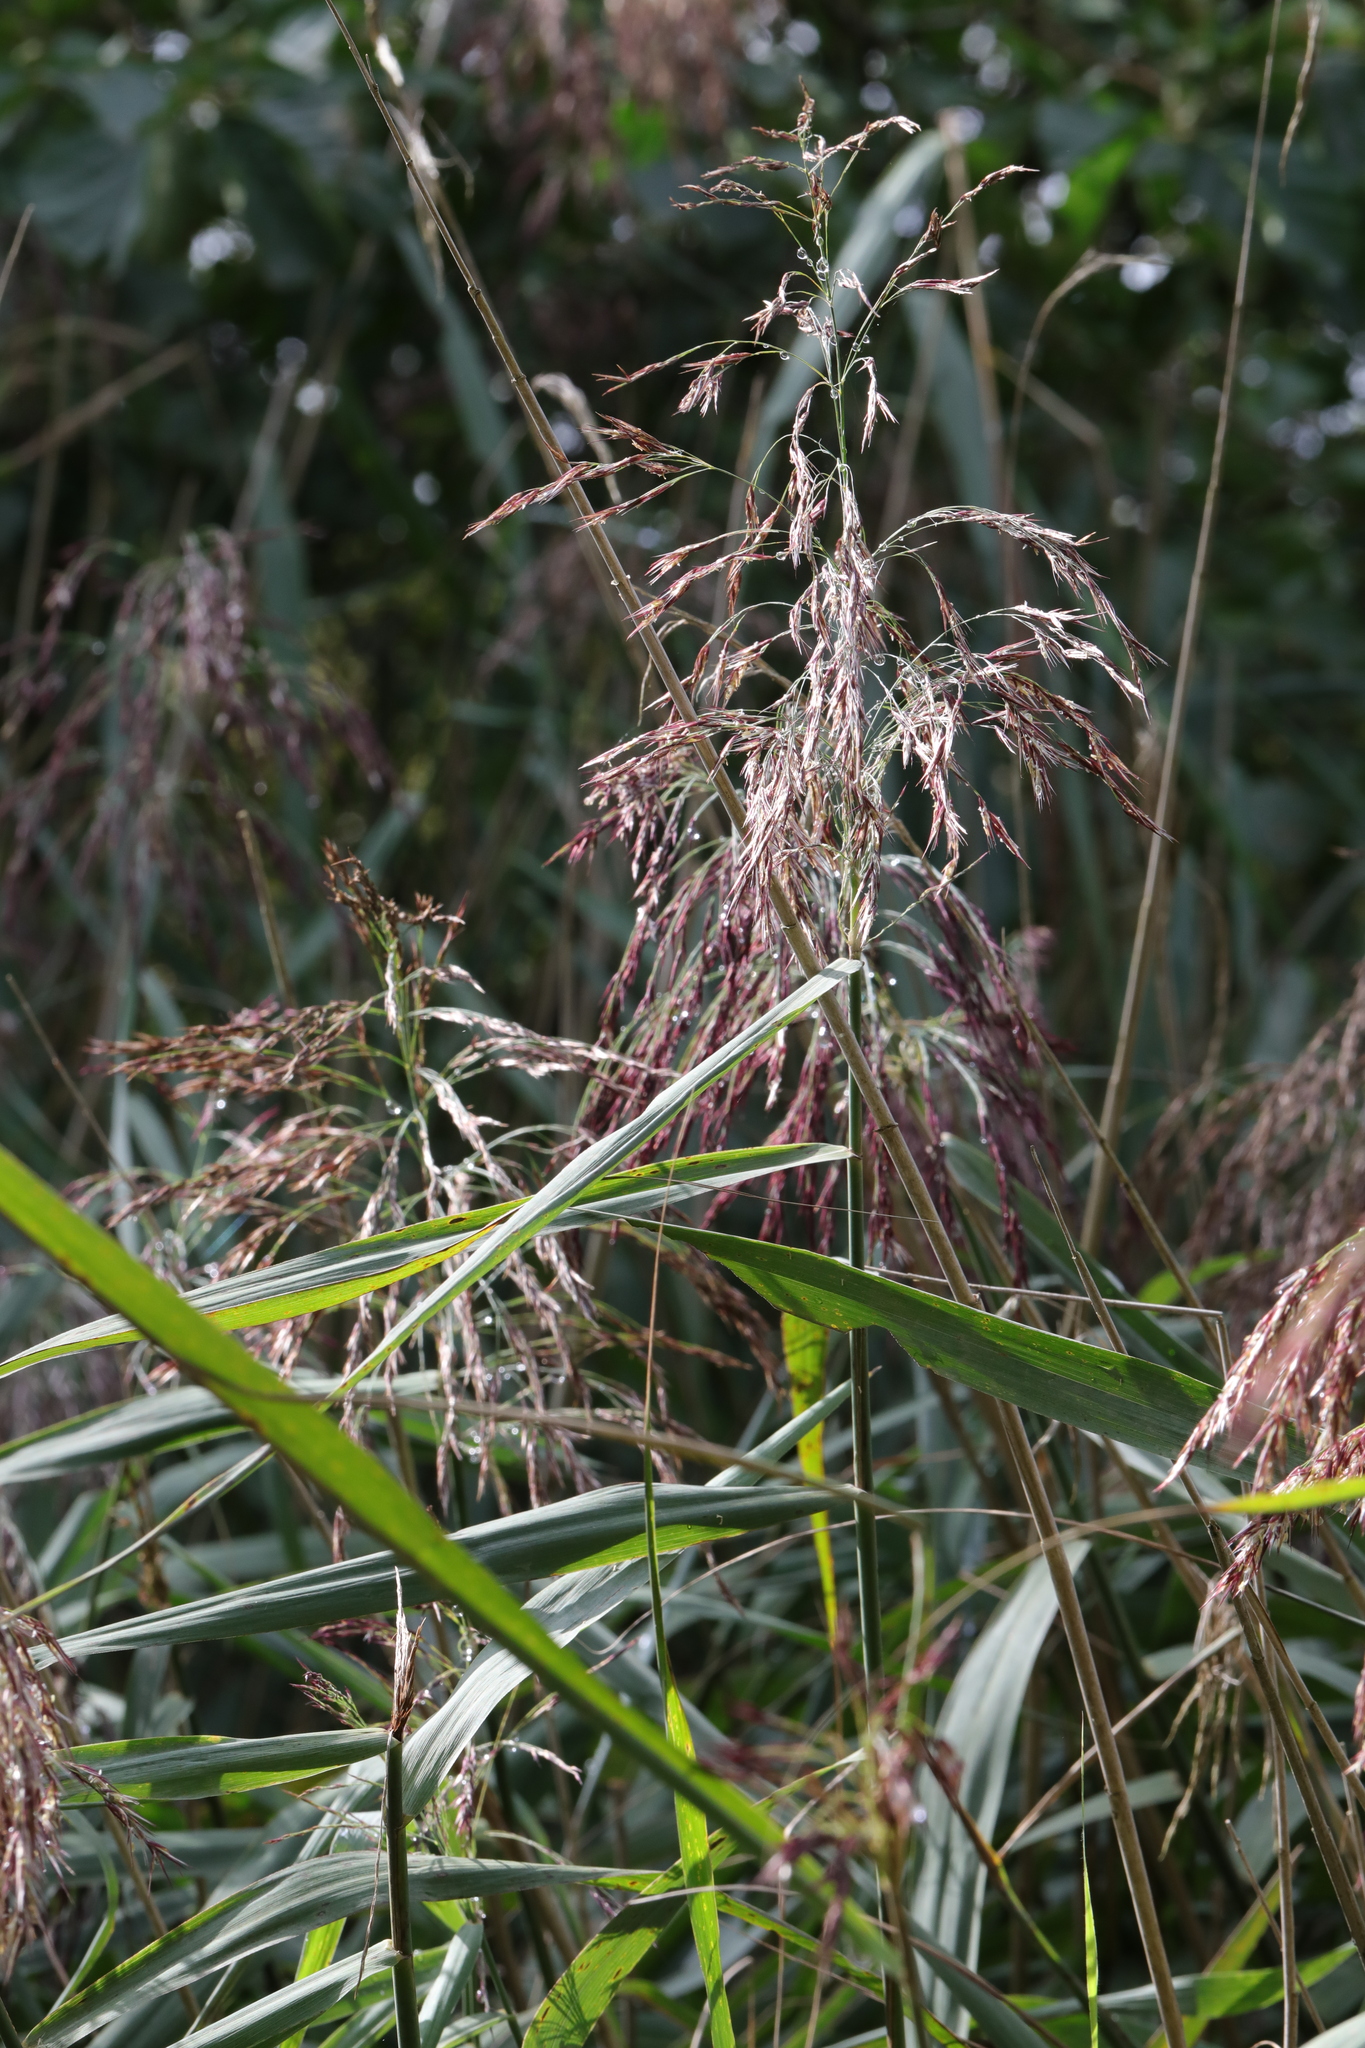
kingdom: Plantae
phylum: Tracheophyta
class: Liliopsida
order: Poales
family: Poaceae
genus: Phragmites
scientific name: Phragmites australis
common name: Common reed
